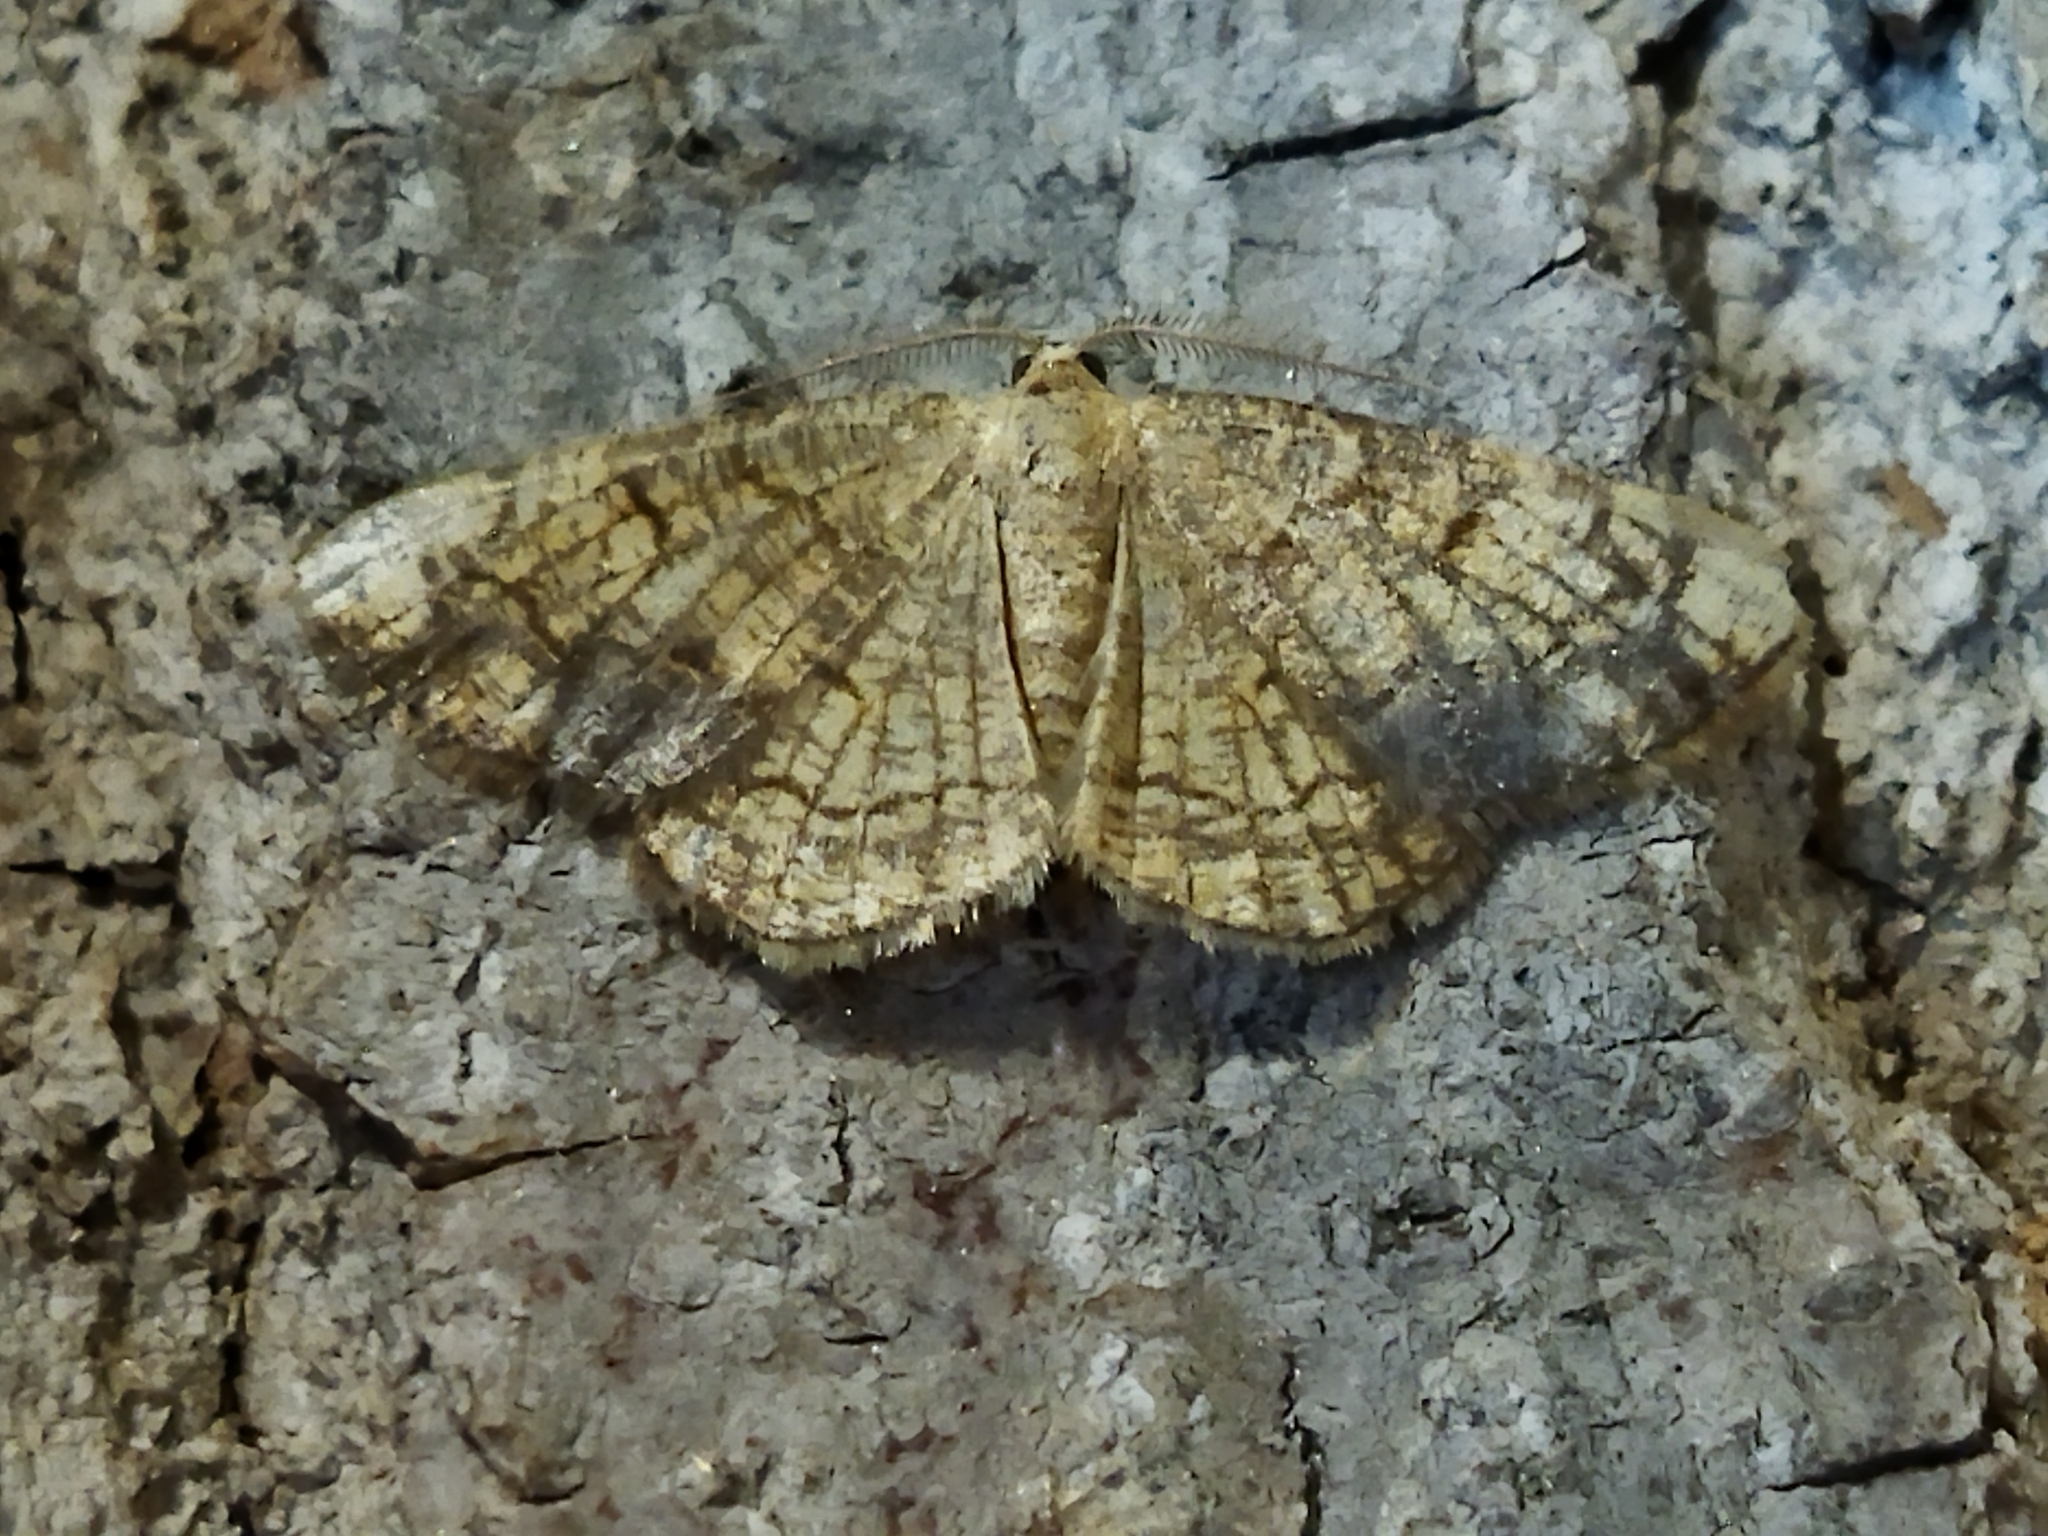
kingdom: Animalia
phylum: Arthropoda
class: Insecta
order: Lepidoptera
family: Geometridae
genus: Stegania
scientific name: Stegania dilectaria
